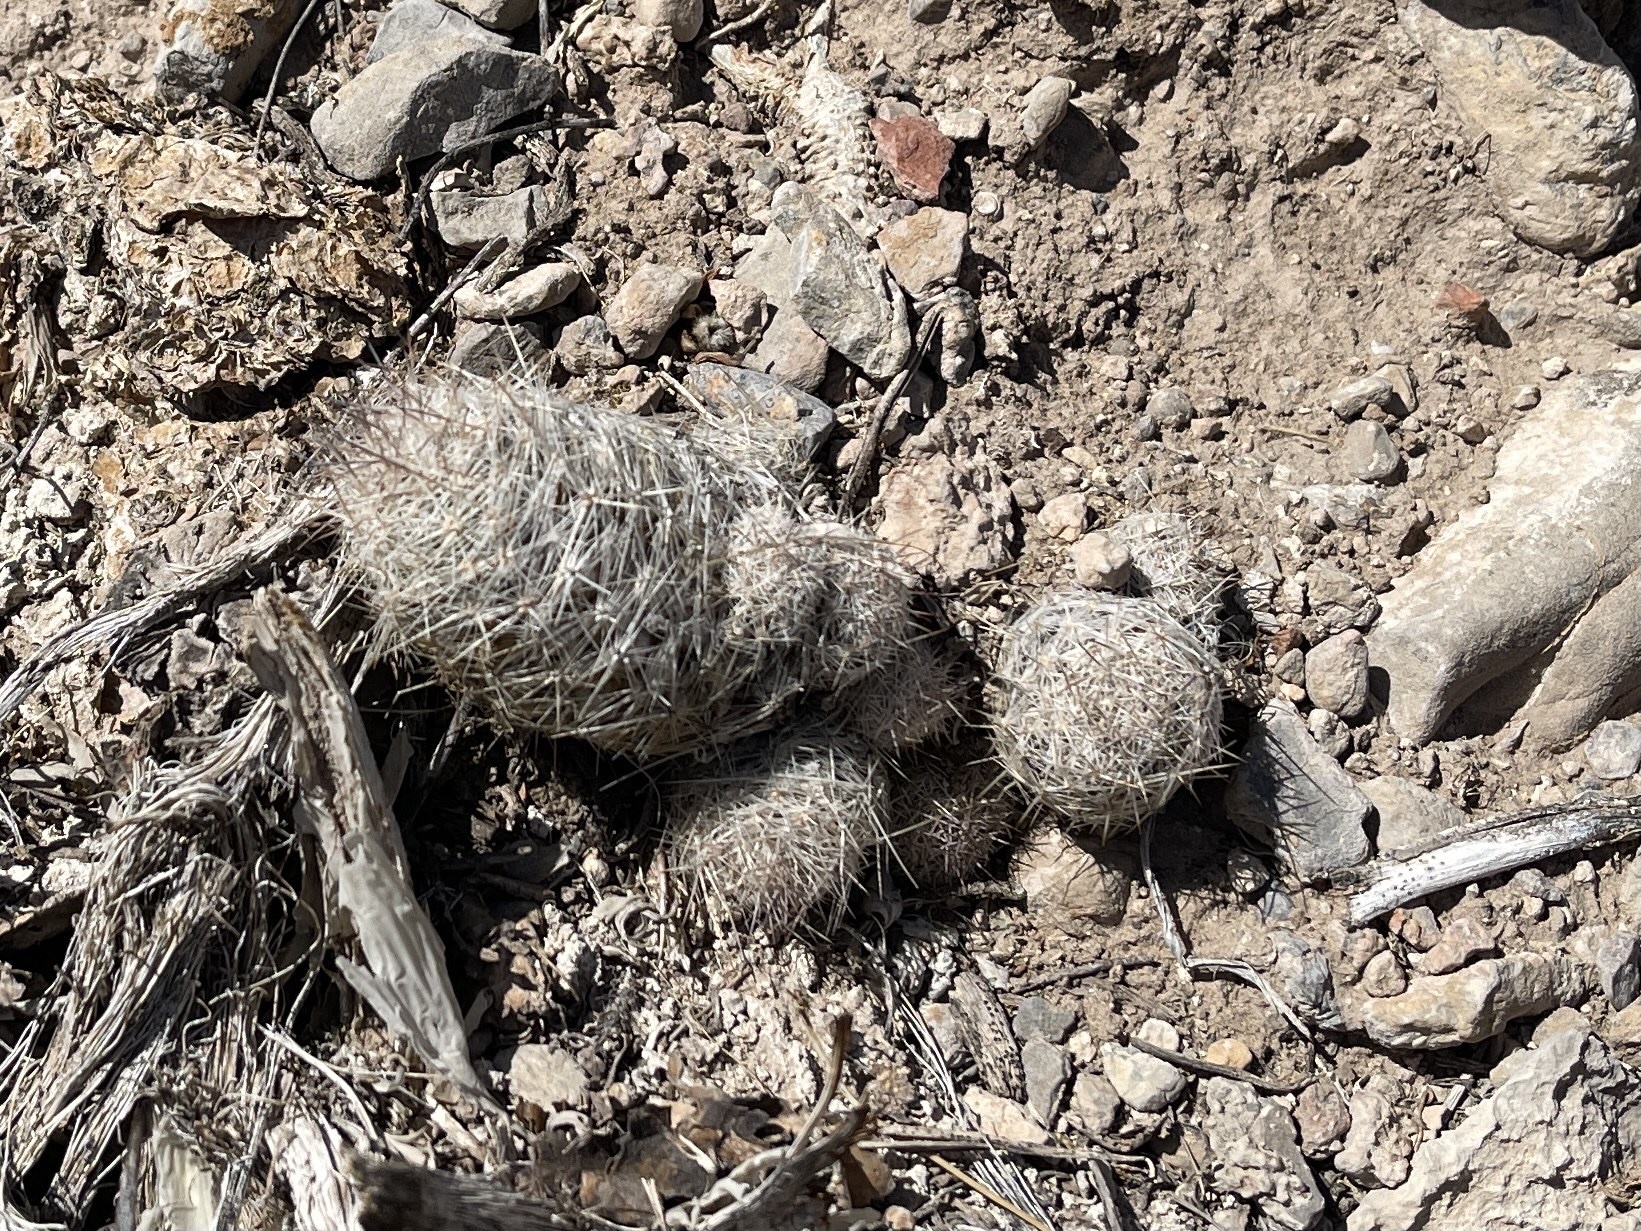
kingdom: Plantae
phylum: Tracheophyta
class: Magnoliopsida
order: Caryophyllales
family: Cactaceae
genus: Pelecyphora
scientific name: Pelecyphora tuberculosa
